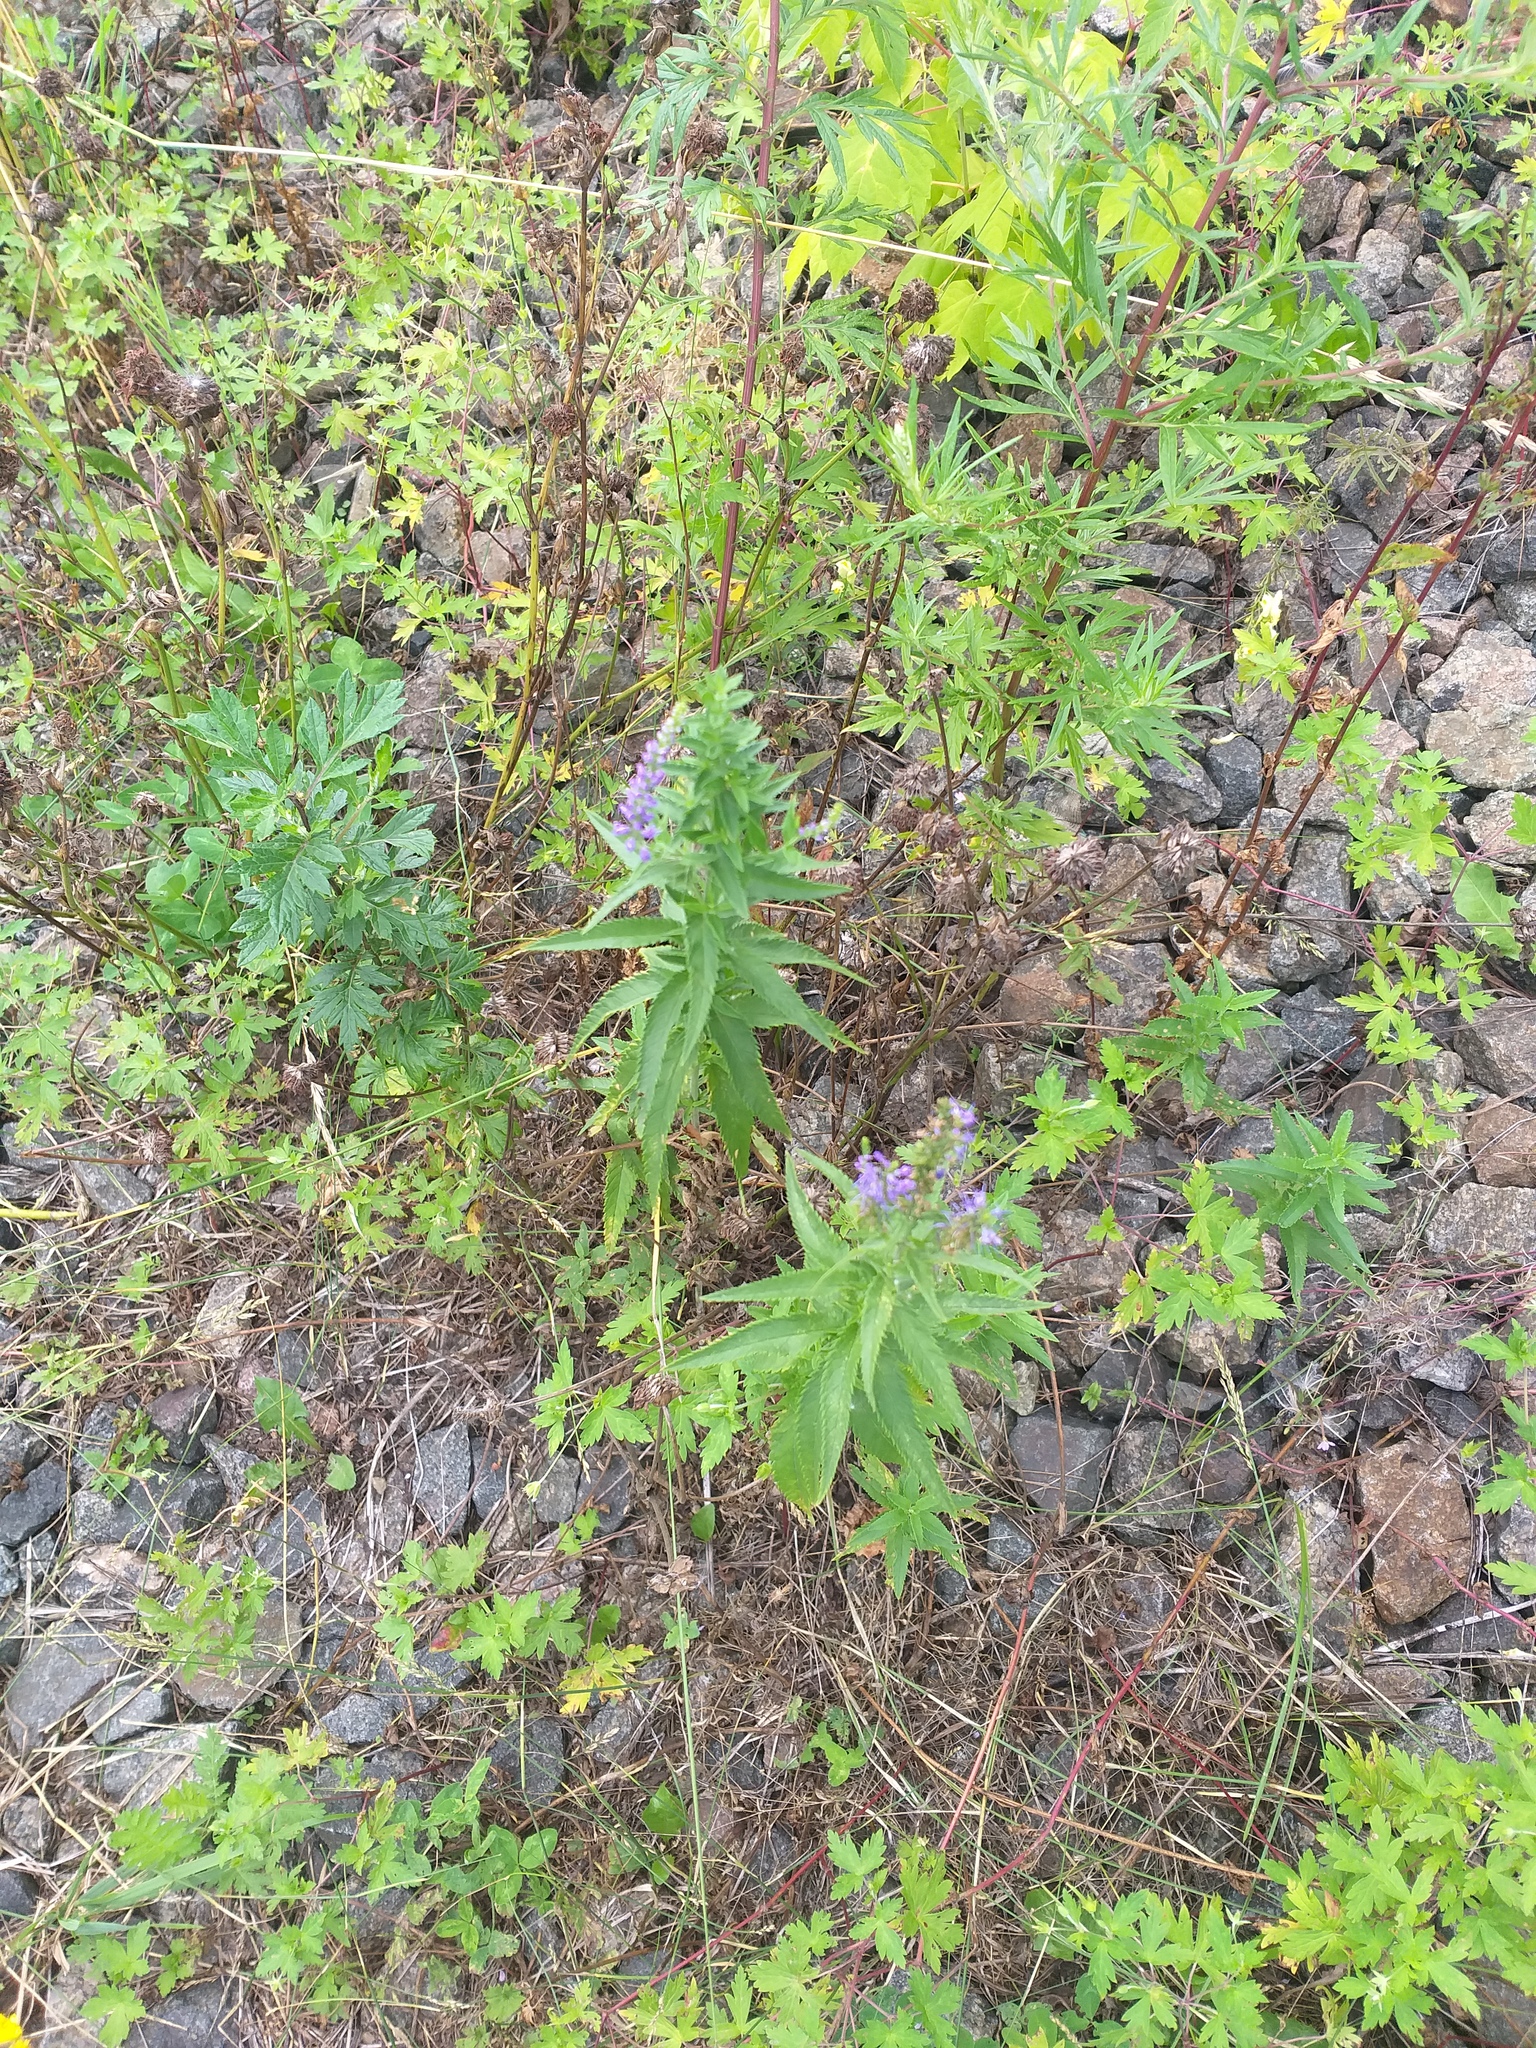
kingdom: Plantae
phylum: Tracheophyta
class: Magnoliopsida
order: Lamiales
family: Plantaginaceae
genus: Veronica
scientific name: Veronica longifolia
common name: Garden speedwell
